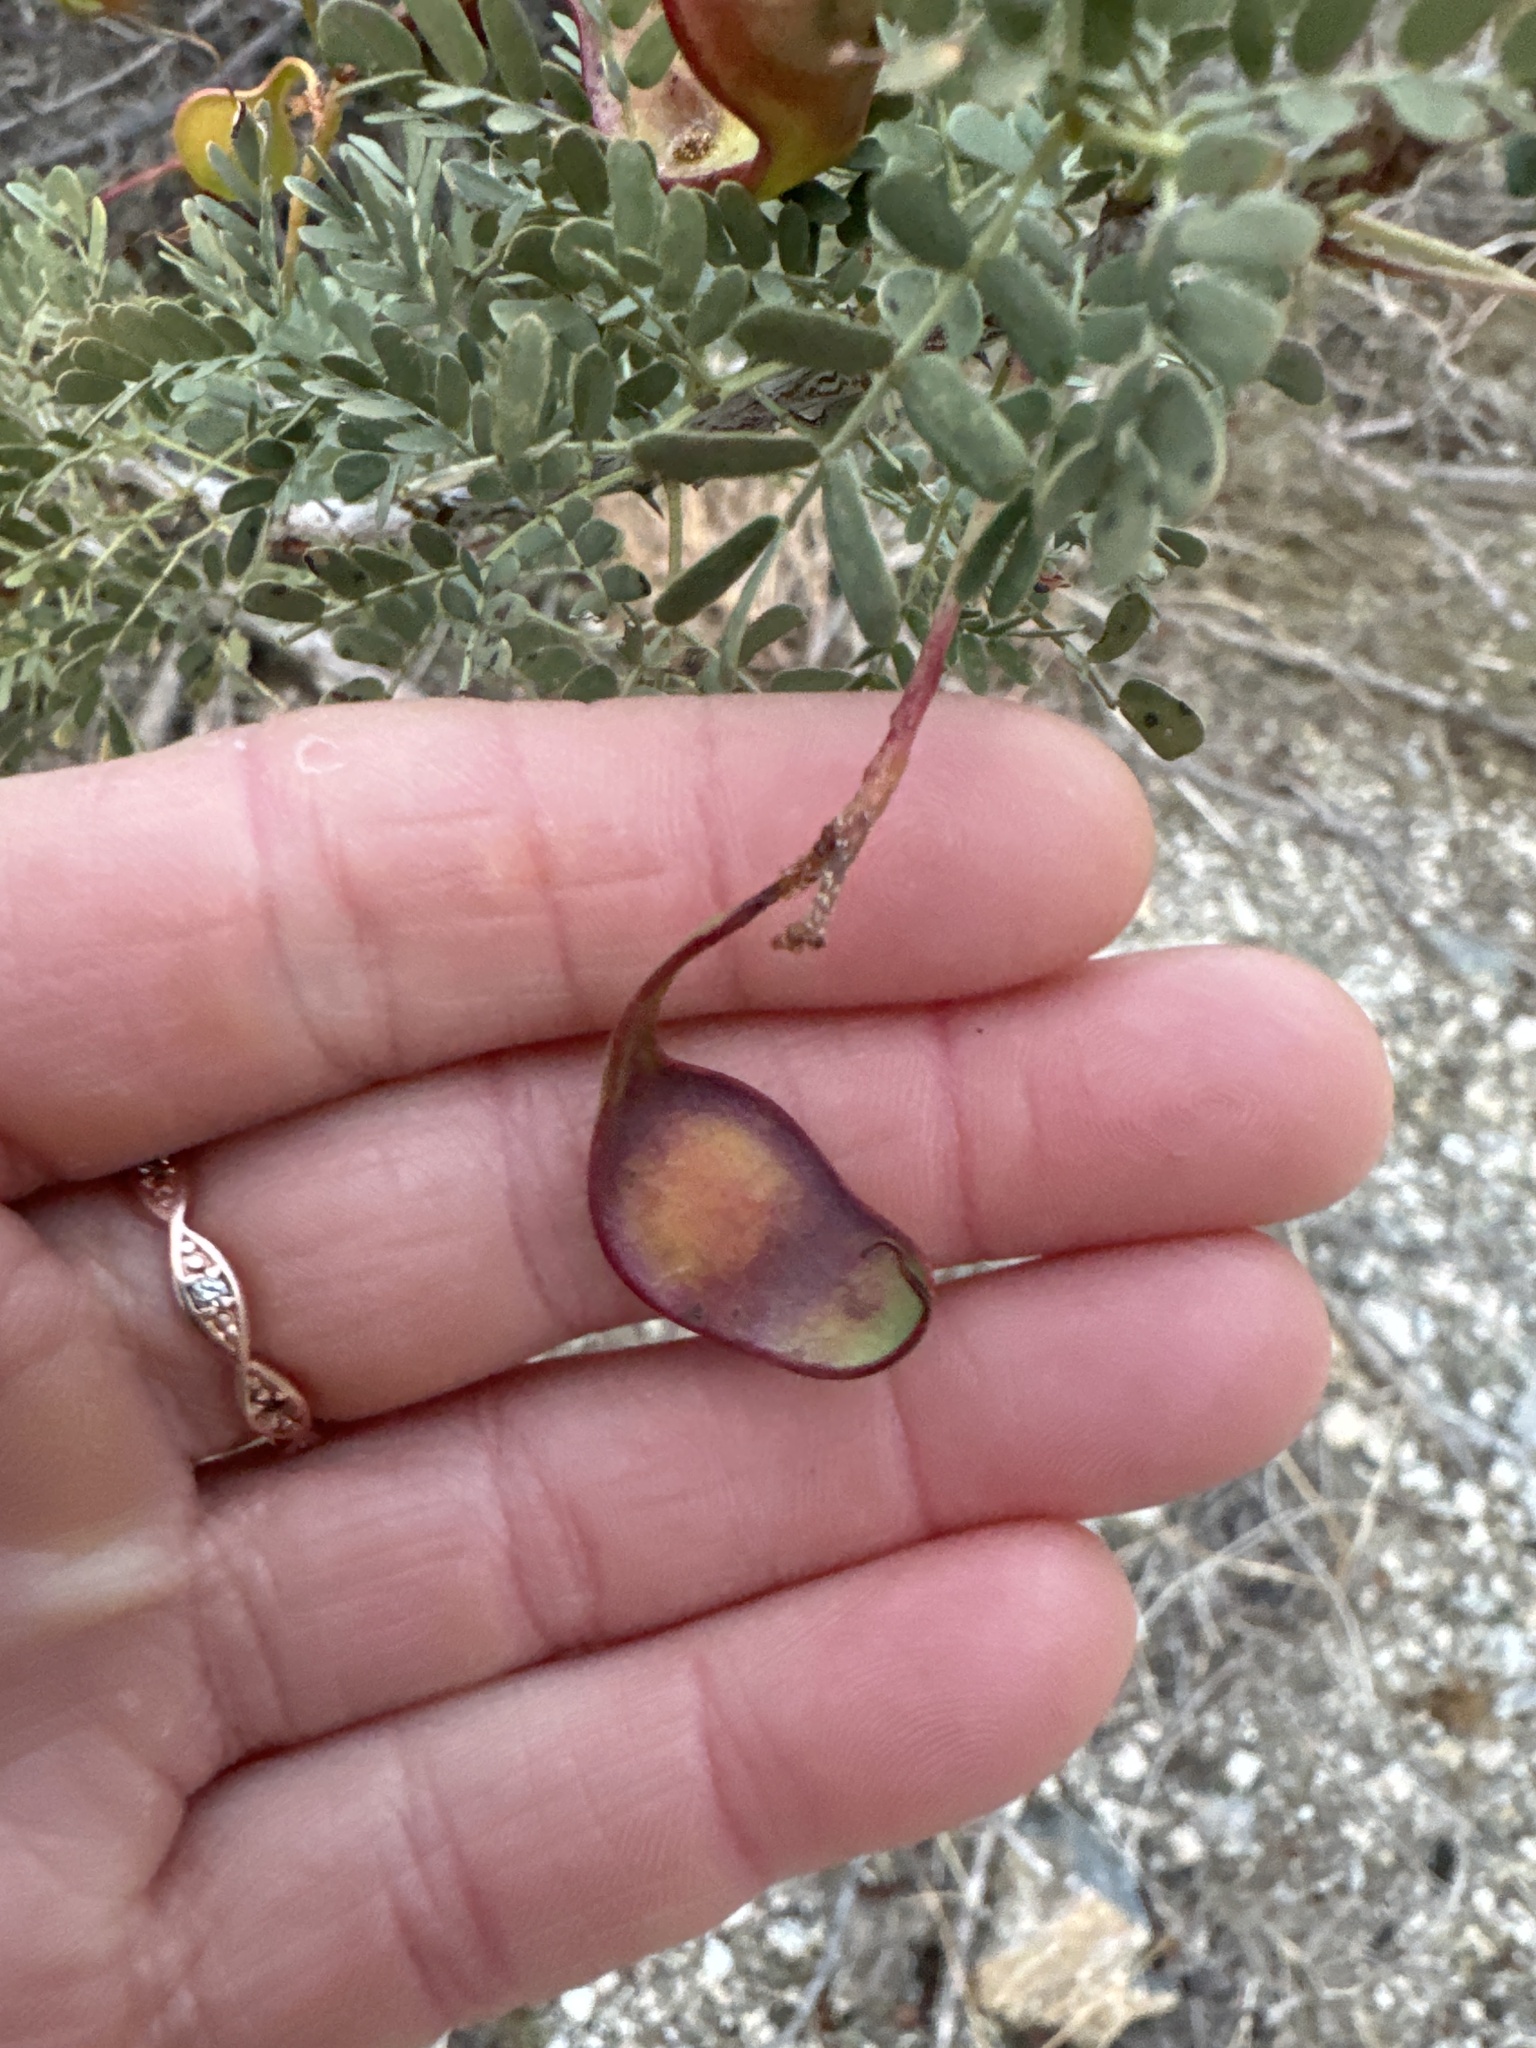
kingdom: Plantae
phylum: Tracheophyta
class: Magnoliopsida
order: Fabales
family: Fabaceae
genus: Senegalia
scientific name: Senegalia greggii
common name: Texas-mimosa
